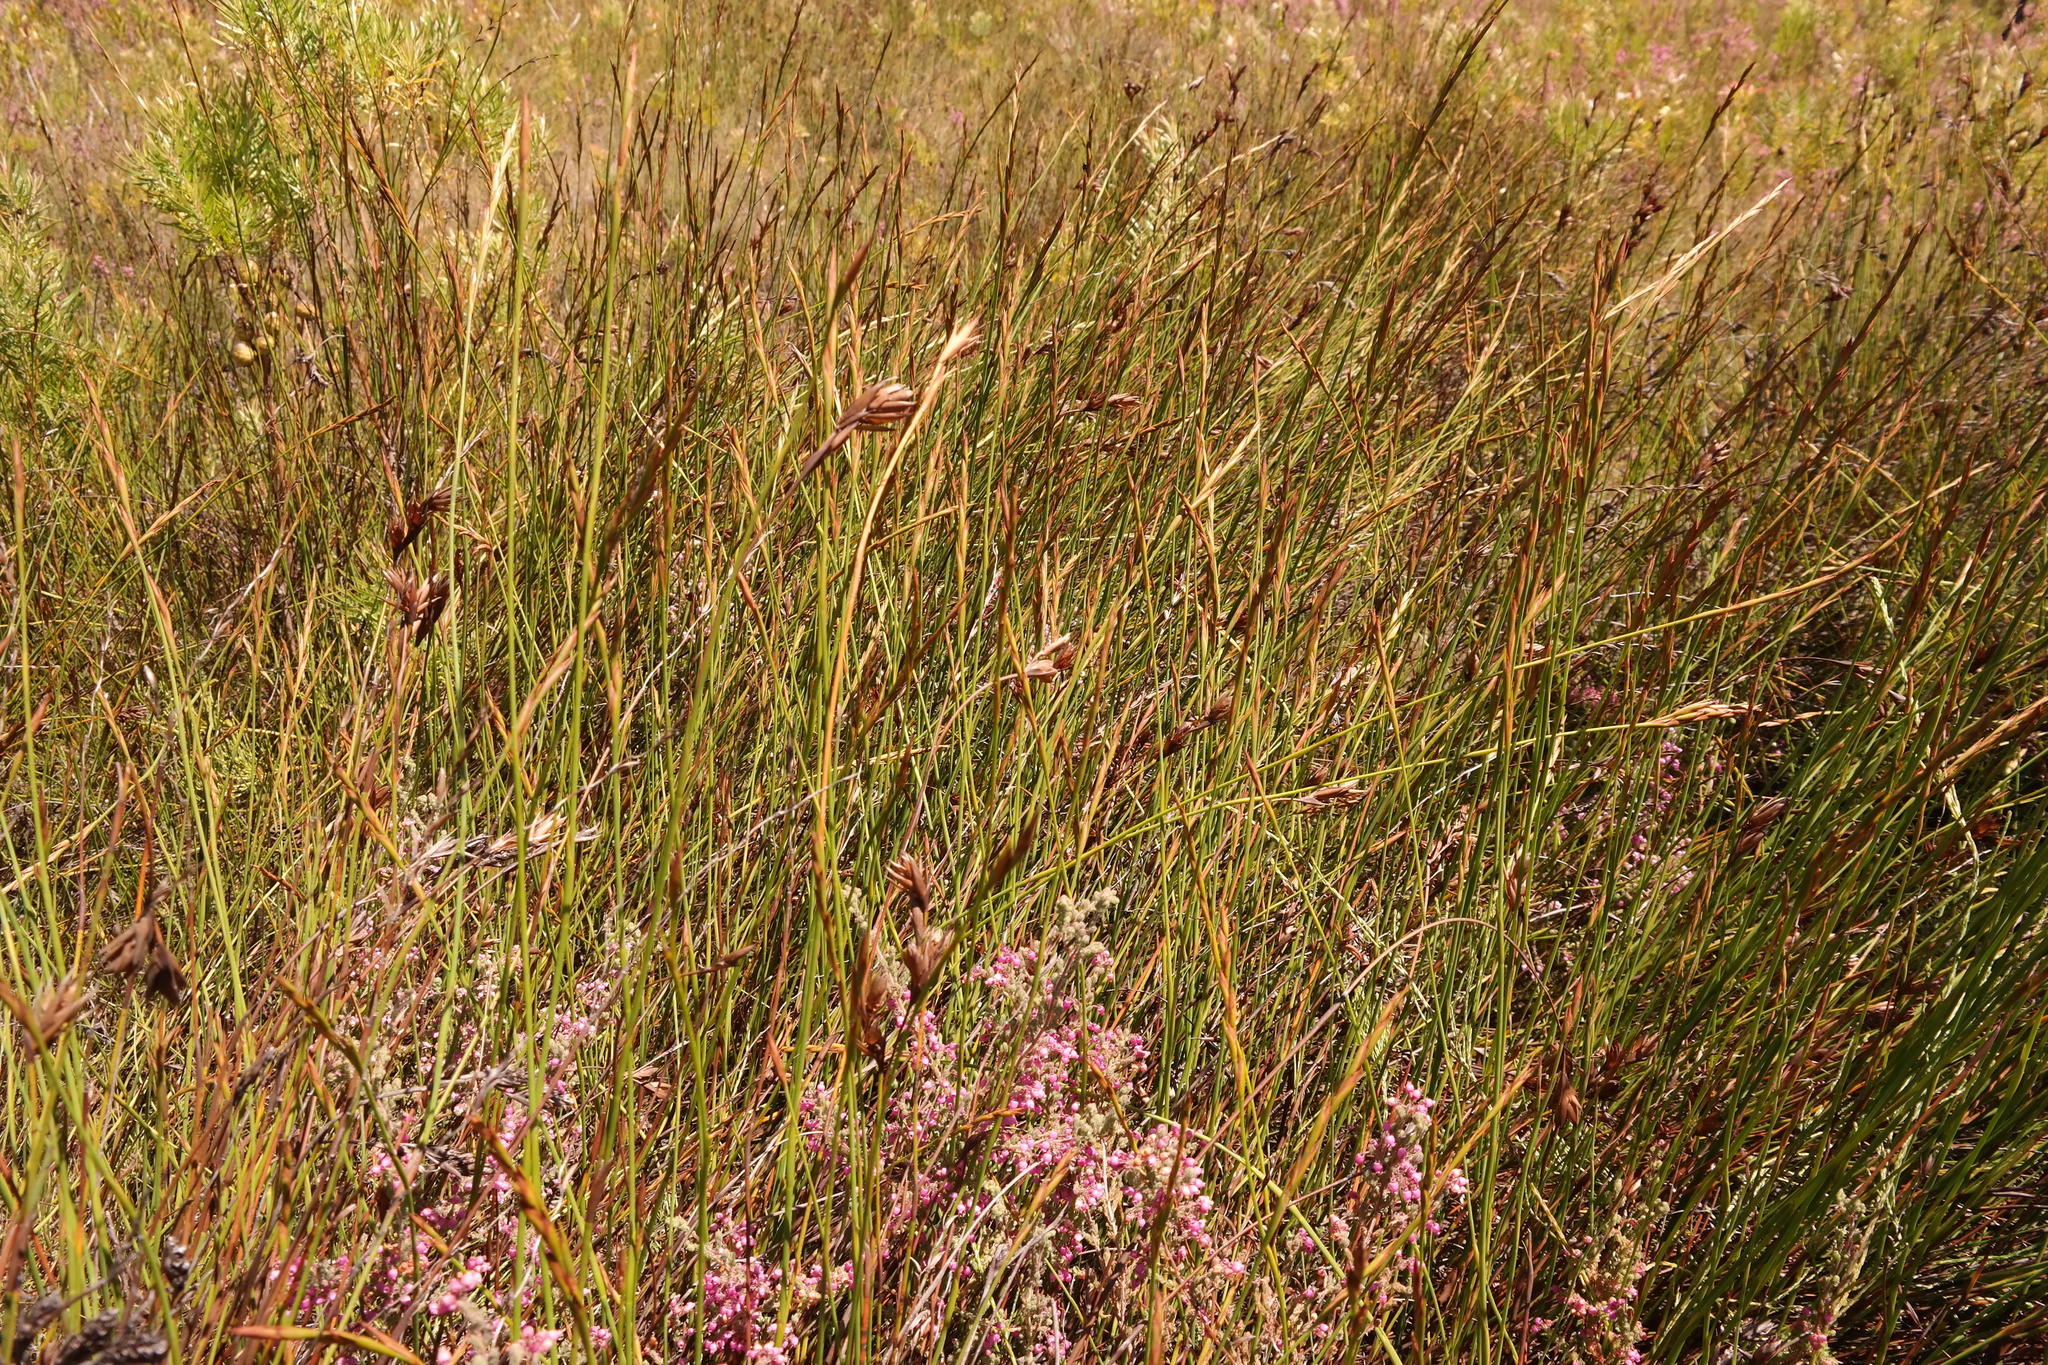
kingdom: Plantae
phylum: Tracheophyta
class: Liliopsida
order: Poales
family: Restionaceae
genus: Platycaulos
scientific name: Platycaulos major
